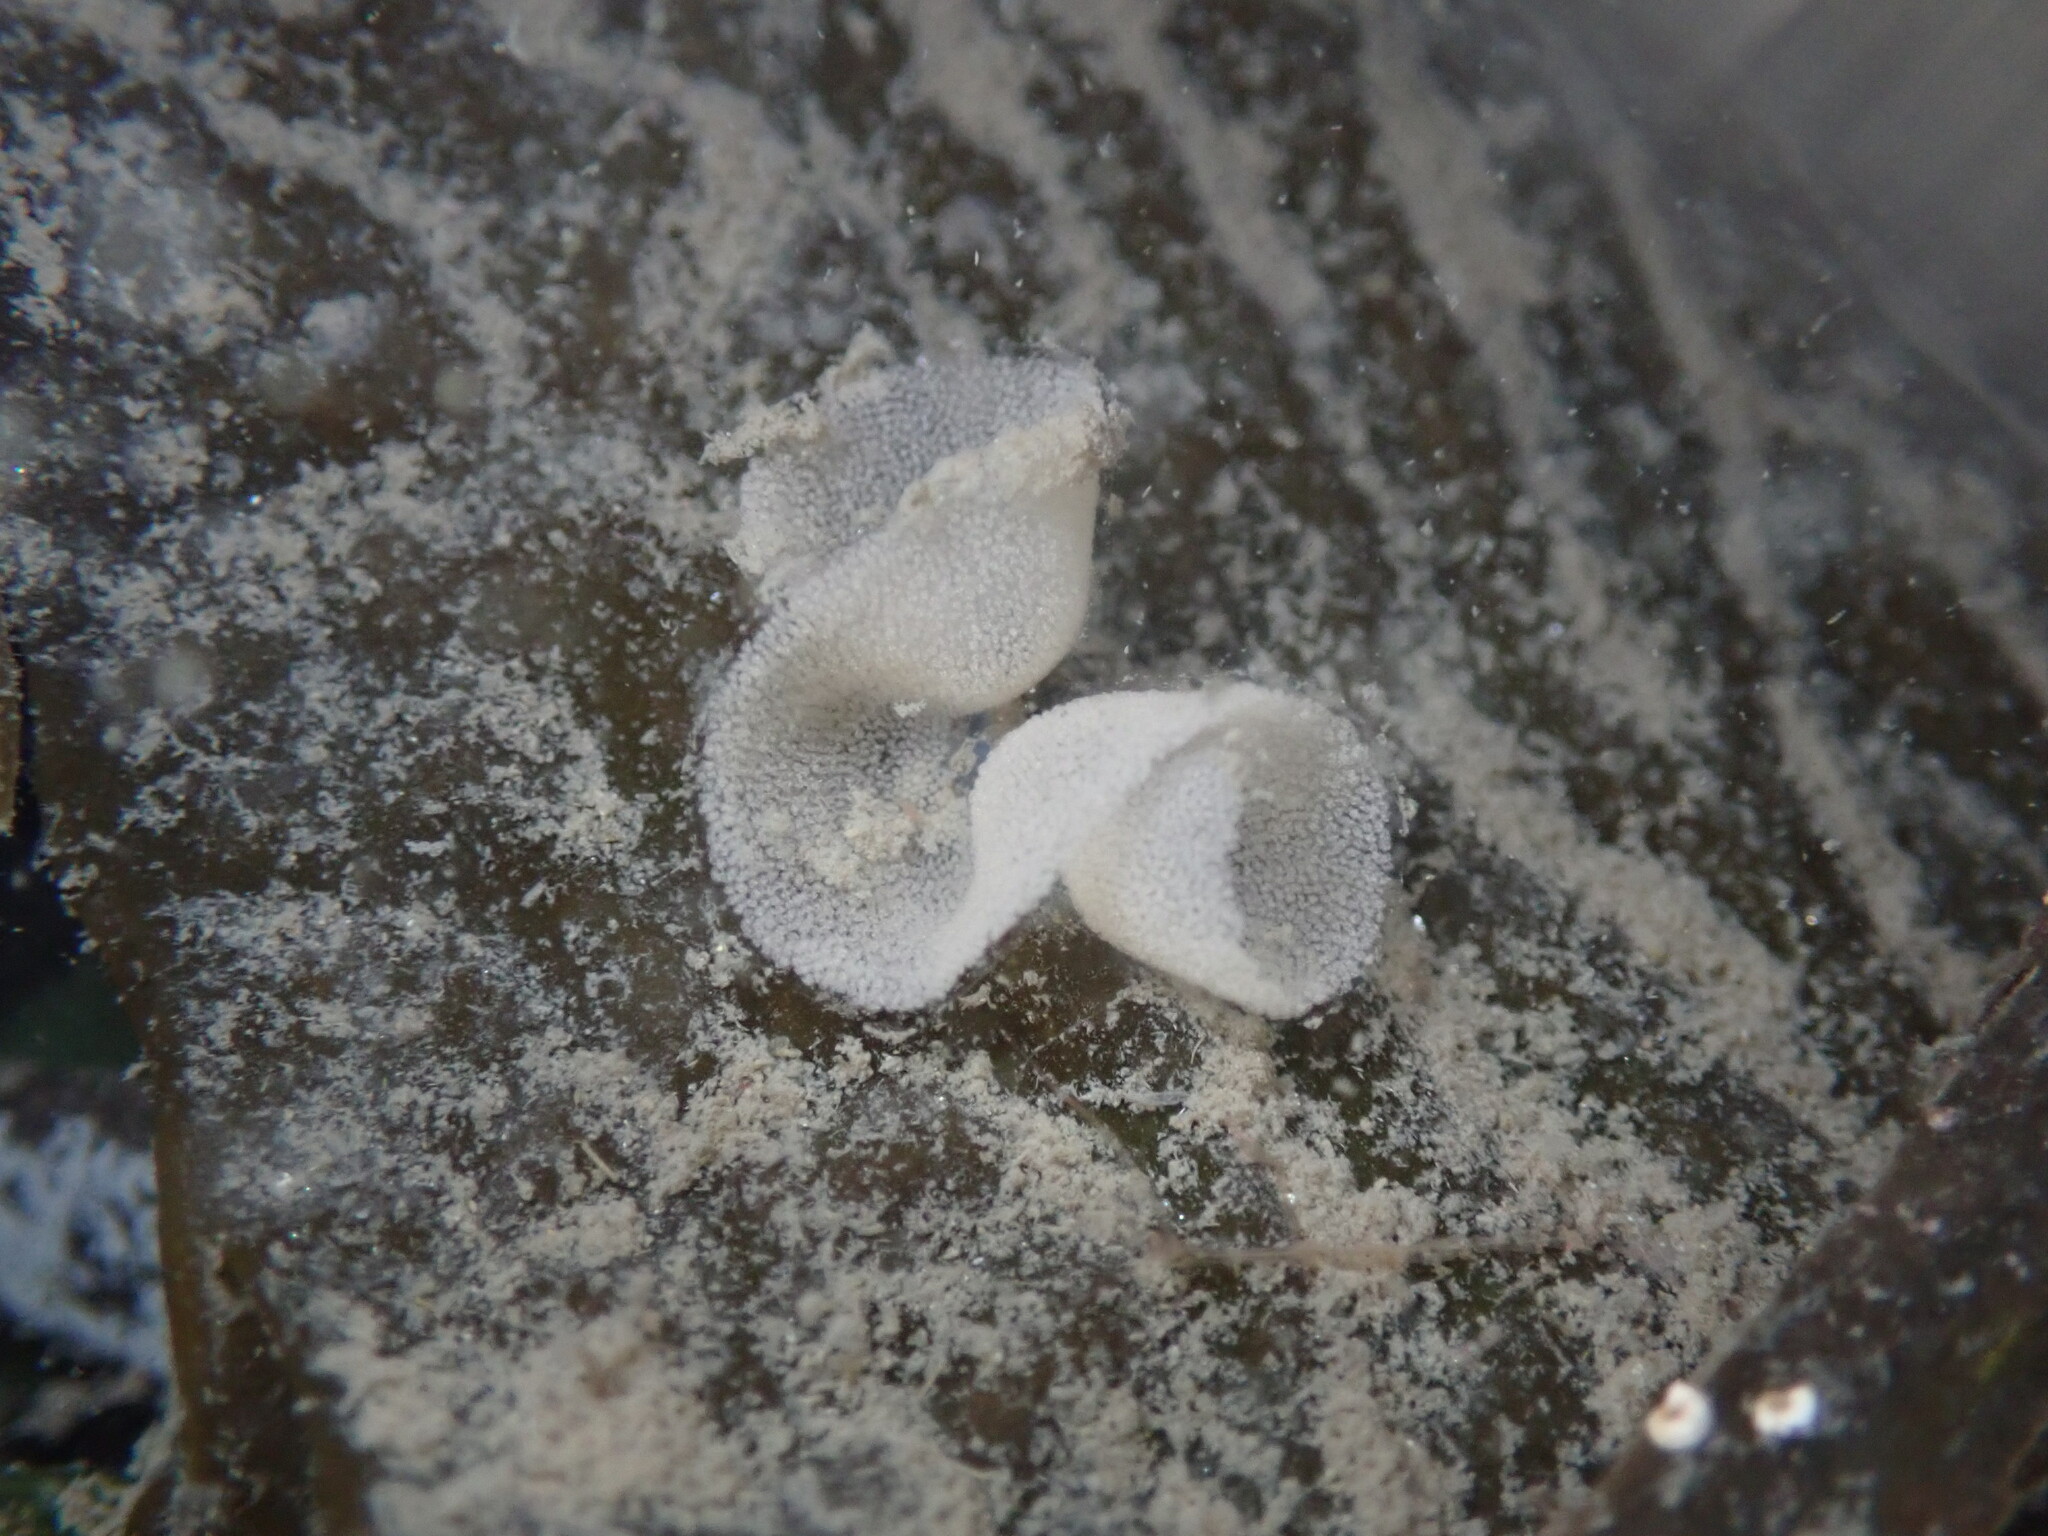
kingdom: Animalia
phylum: Mollusca
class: Gastropoda
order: Nudibranchia
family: Tethydidae
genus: Melibe
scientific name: Melibe leonina
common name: Lion nudibranch
